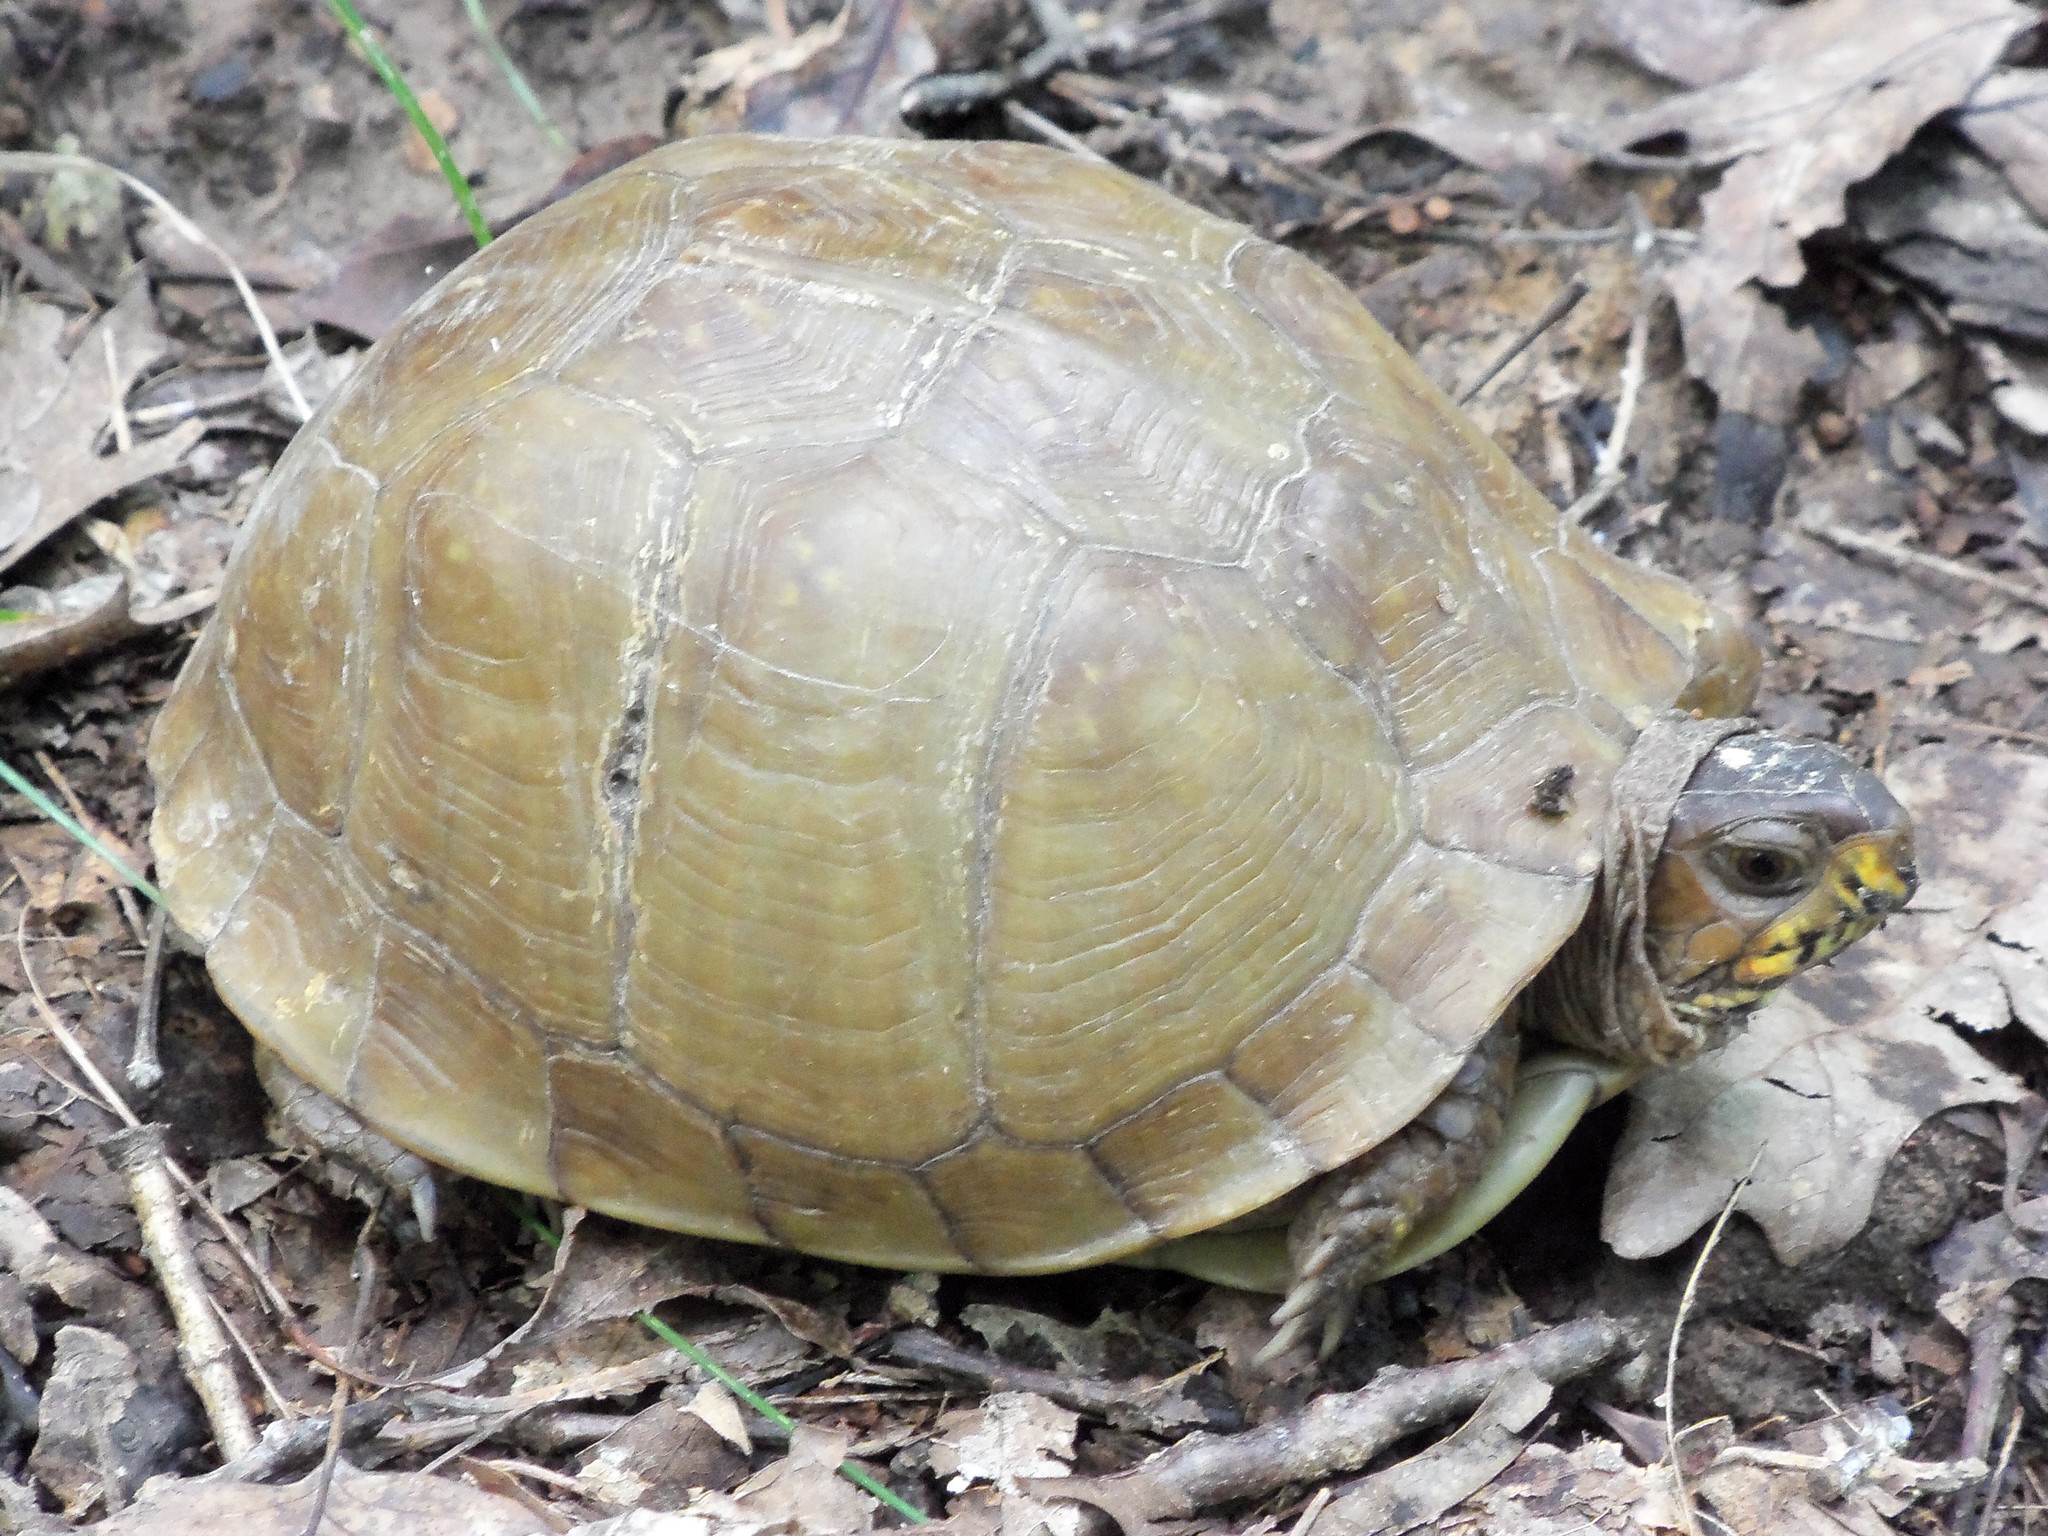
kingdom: Animalia
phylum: Chordata
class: Testudines
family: Emydidae
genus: Terrapene
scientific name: Terrapene carolina
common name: Common box turtle
